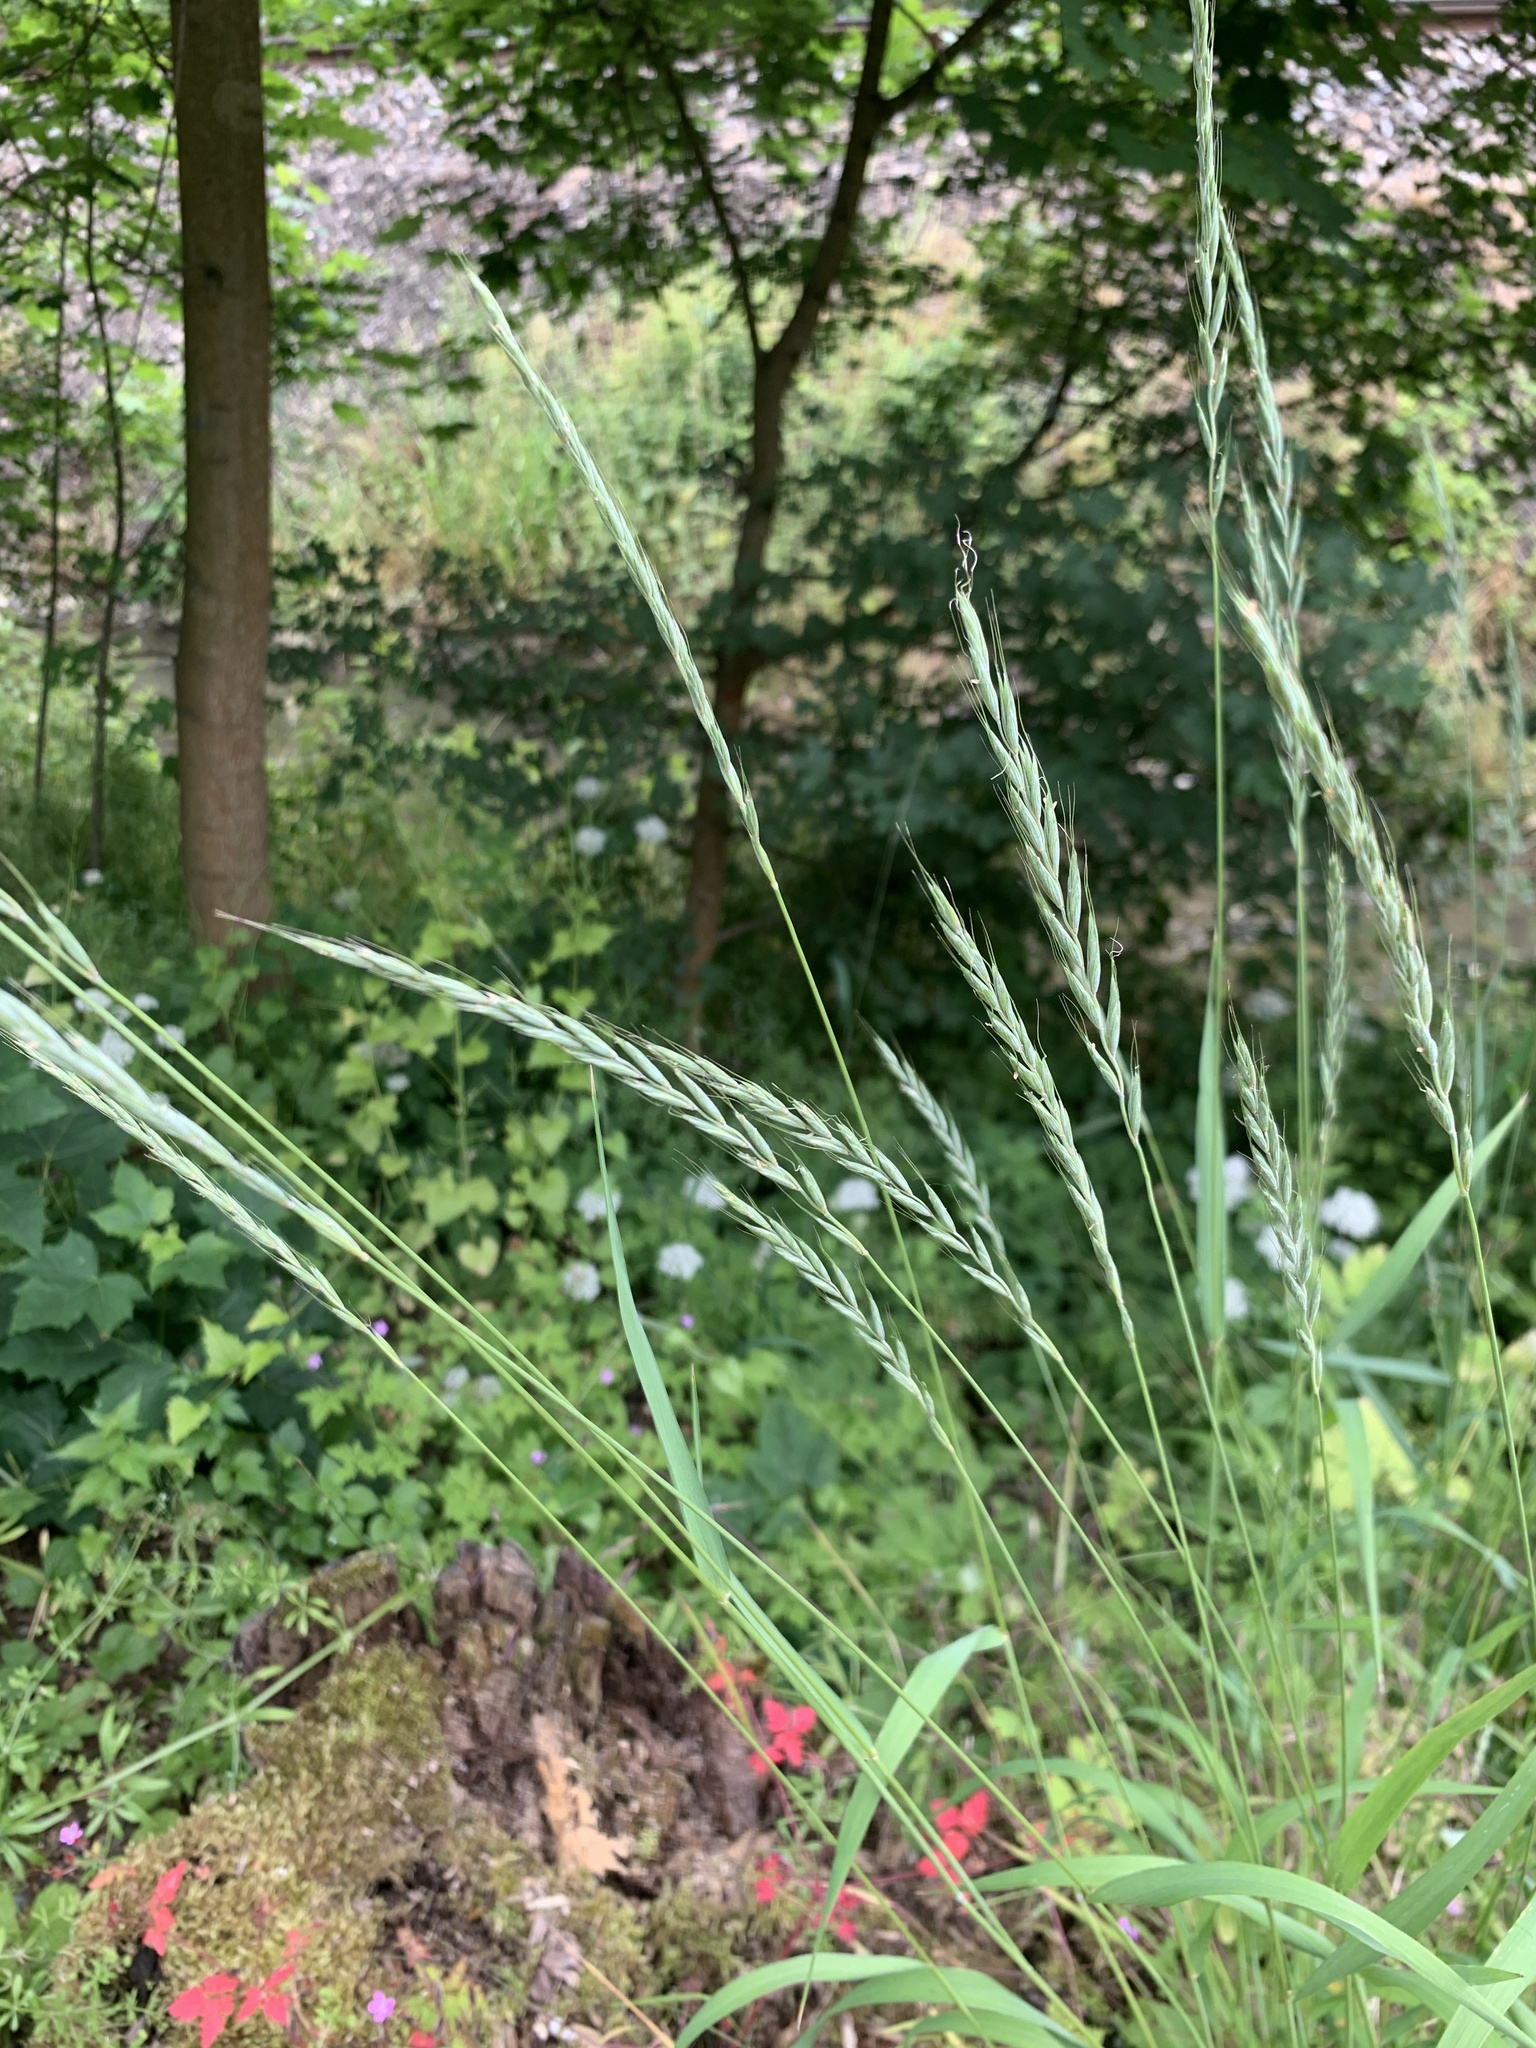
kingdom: Plantae
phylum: Tracheophyta
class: Liliopsida
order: Poales
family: Poaceae
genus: Elymus
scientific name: Elymus caninus
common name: Bearded couch
